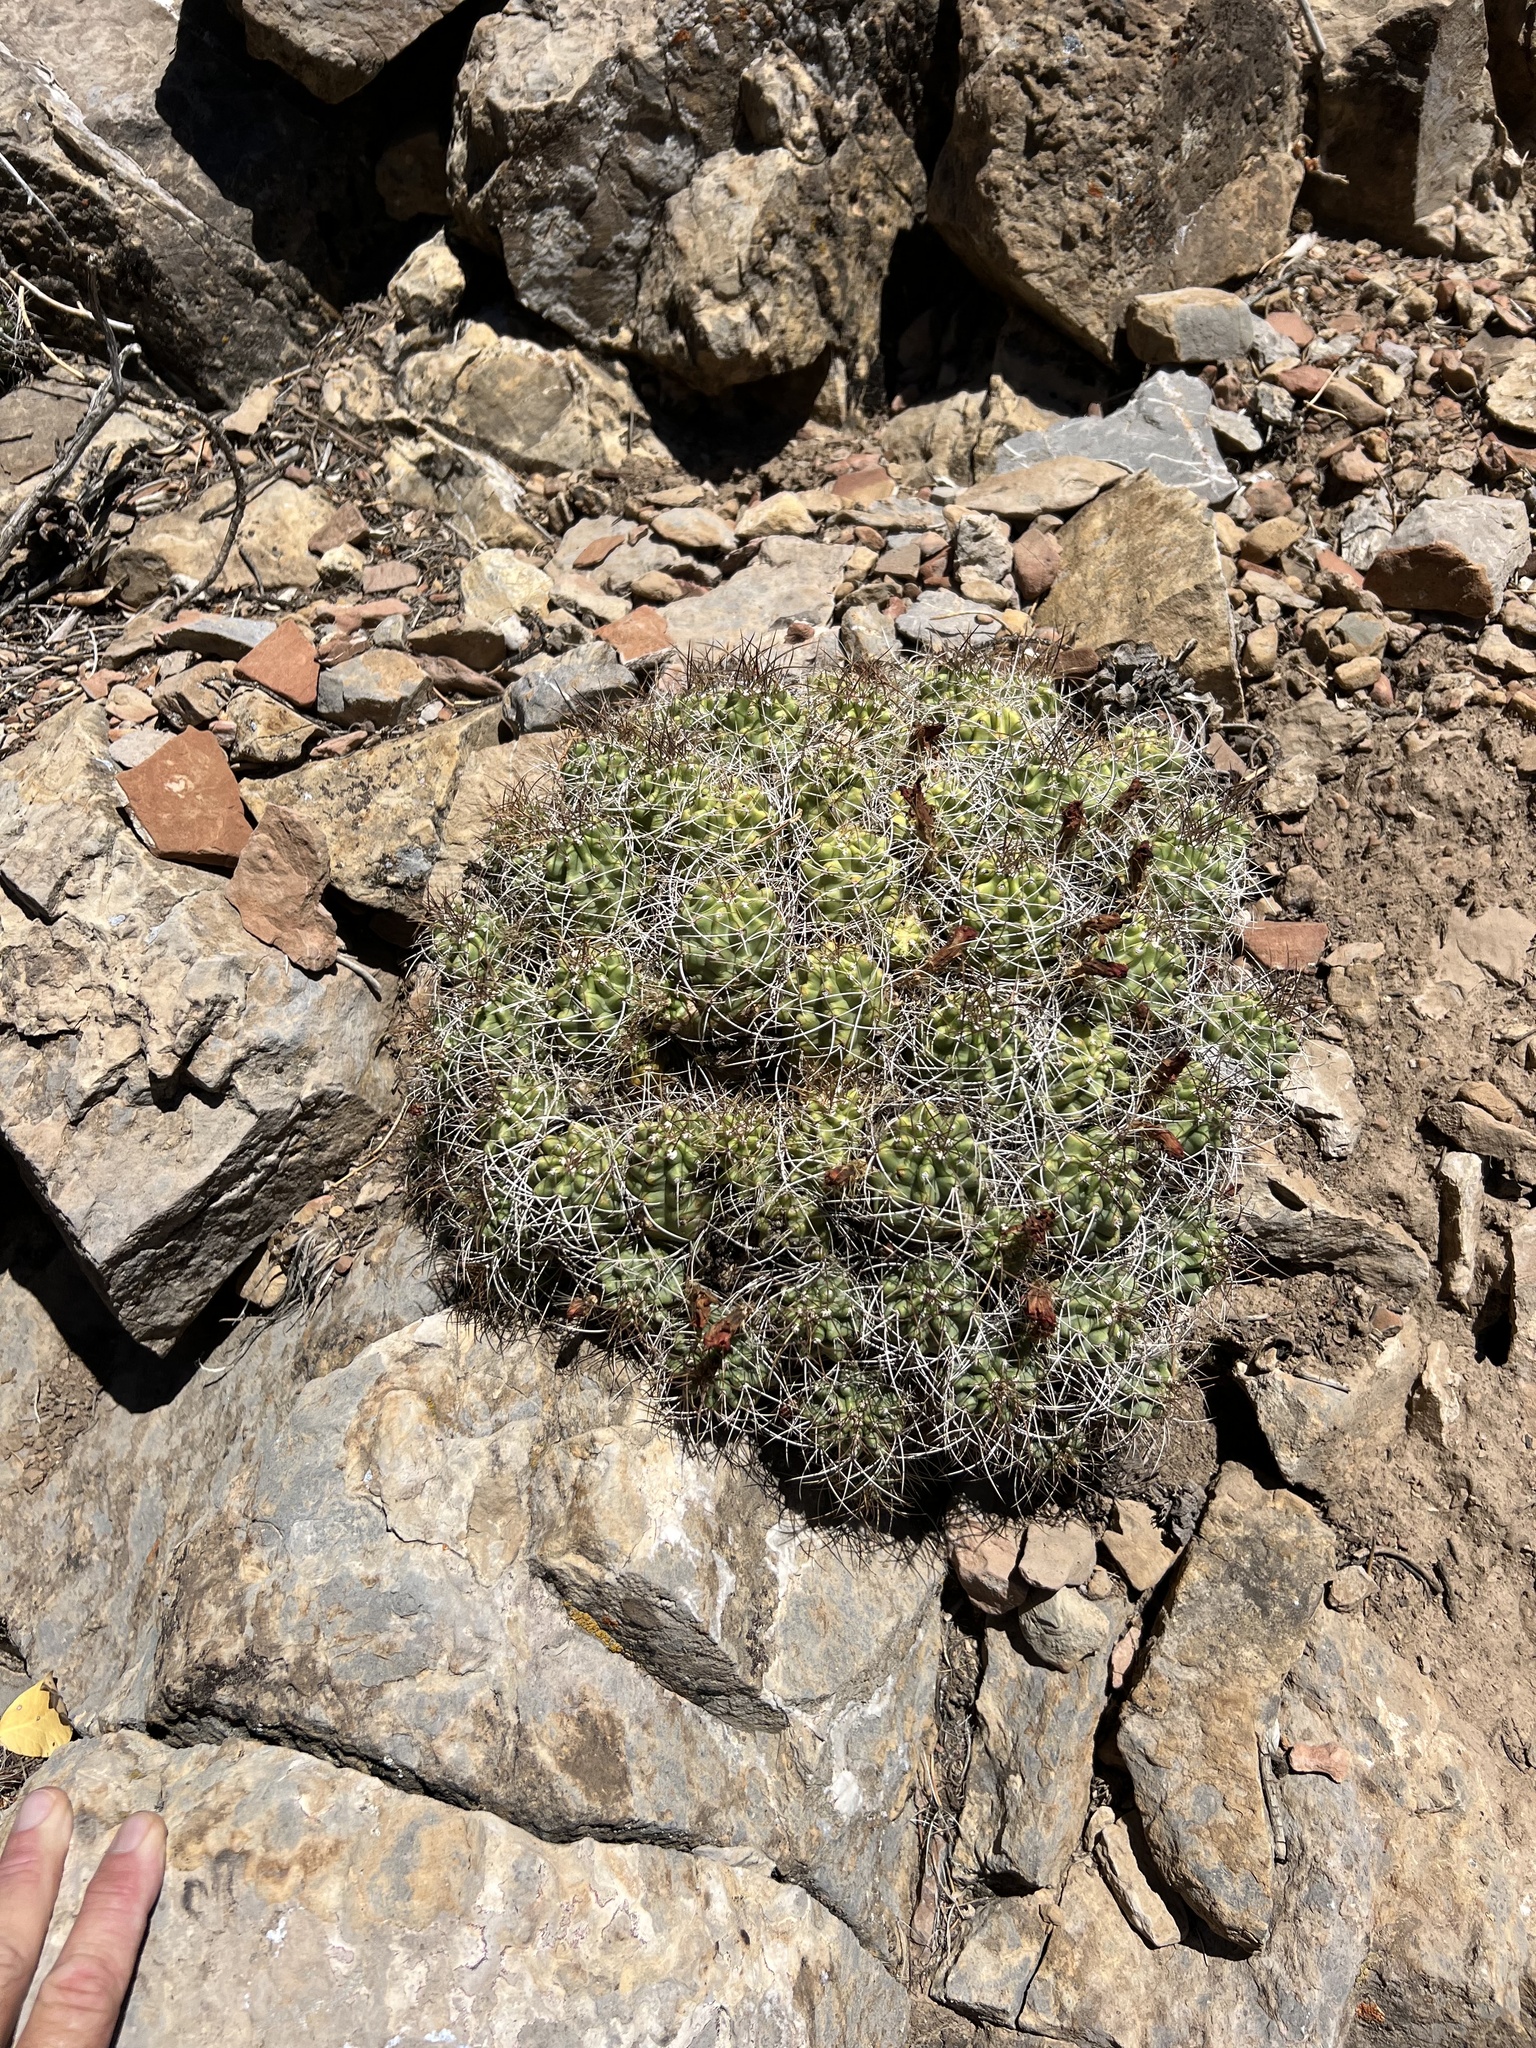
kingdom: Plantae
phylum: Tracheophyta
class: Magnoliopsida
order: Caryophyllales
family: Cactaceae
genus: Echinocereus
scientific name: Echinocereus triglochidiatus
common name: Claretcup hedgehog
